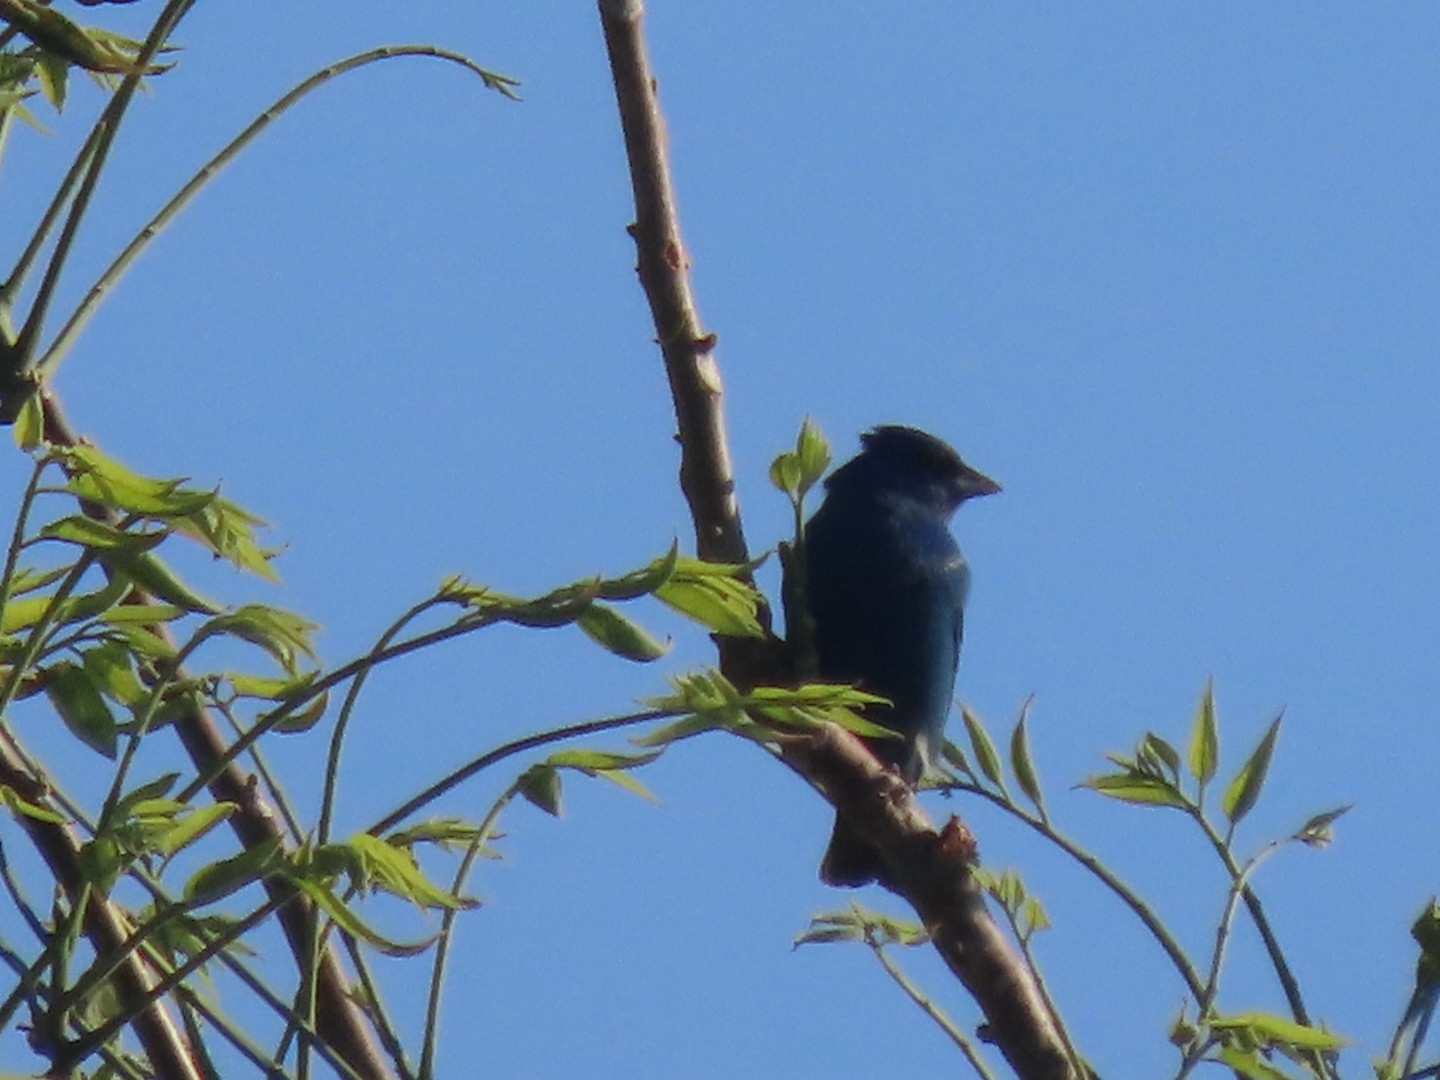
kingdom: Animalia
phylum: Chordata
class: Aves
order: Passeriformes
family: Cardinalidae
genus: Passerina
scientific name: Passerina cyanea
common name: Indigo bunting
